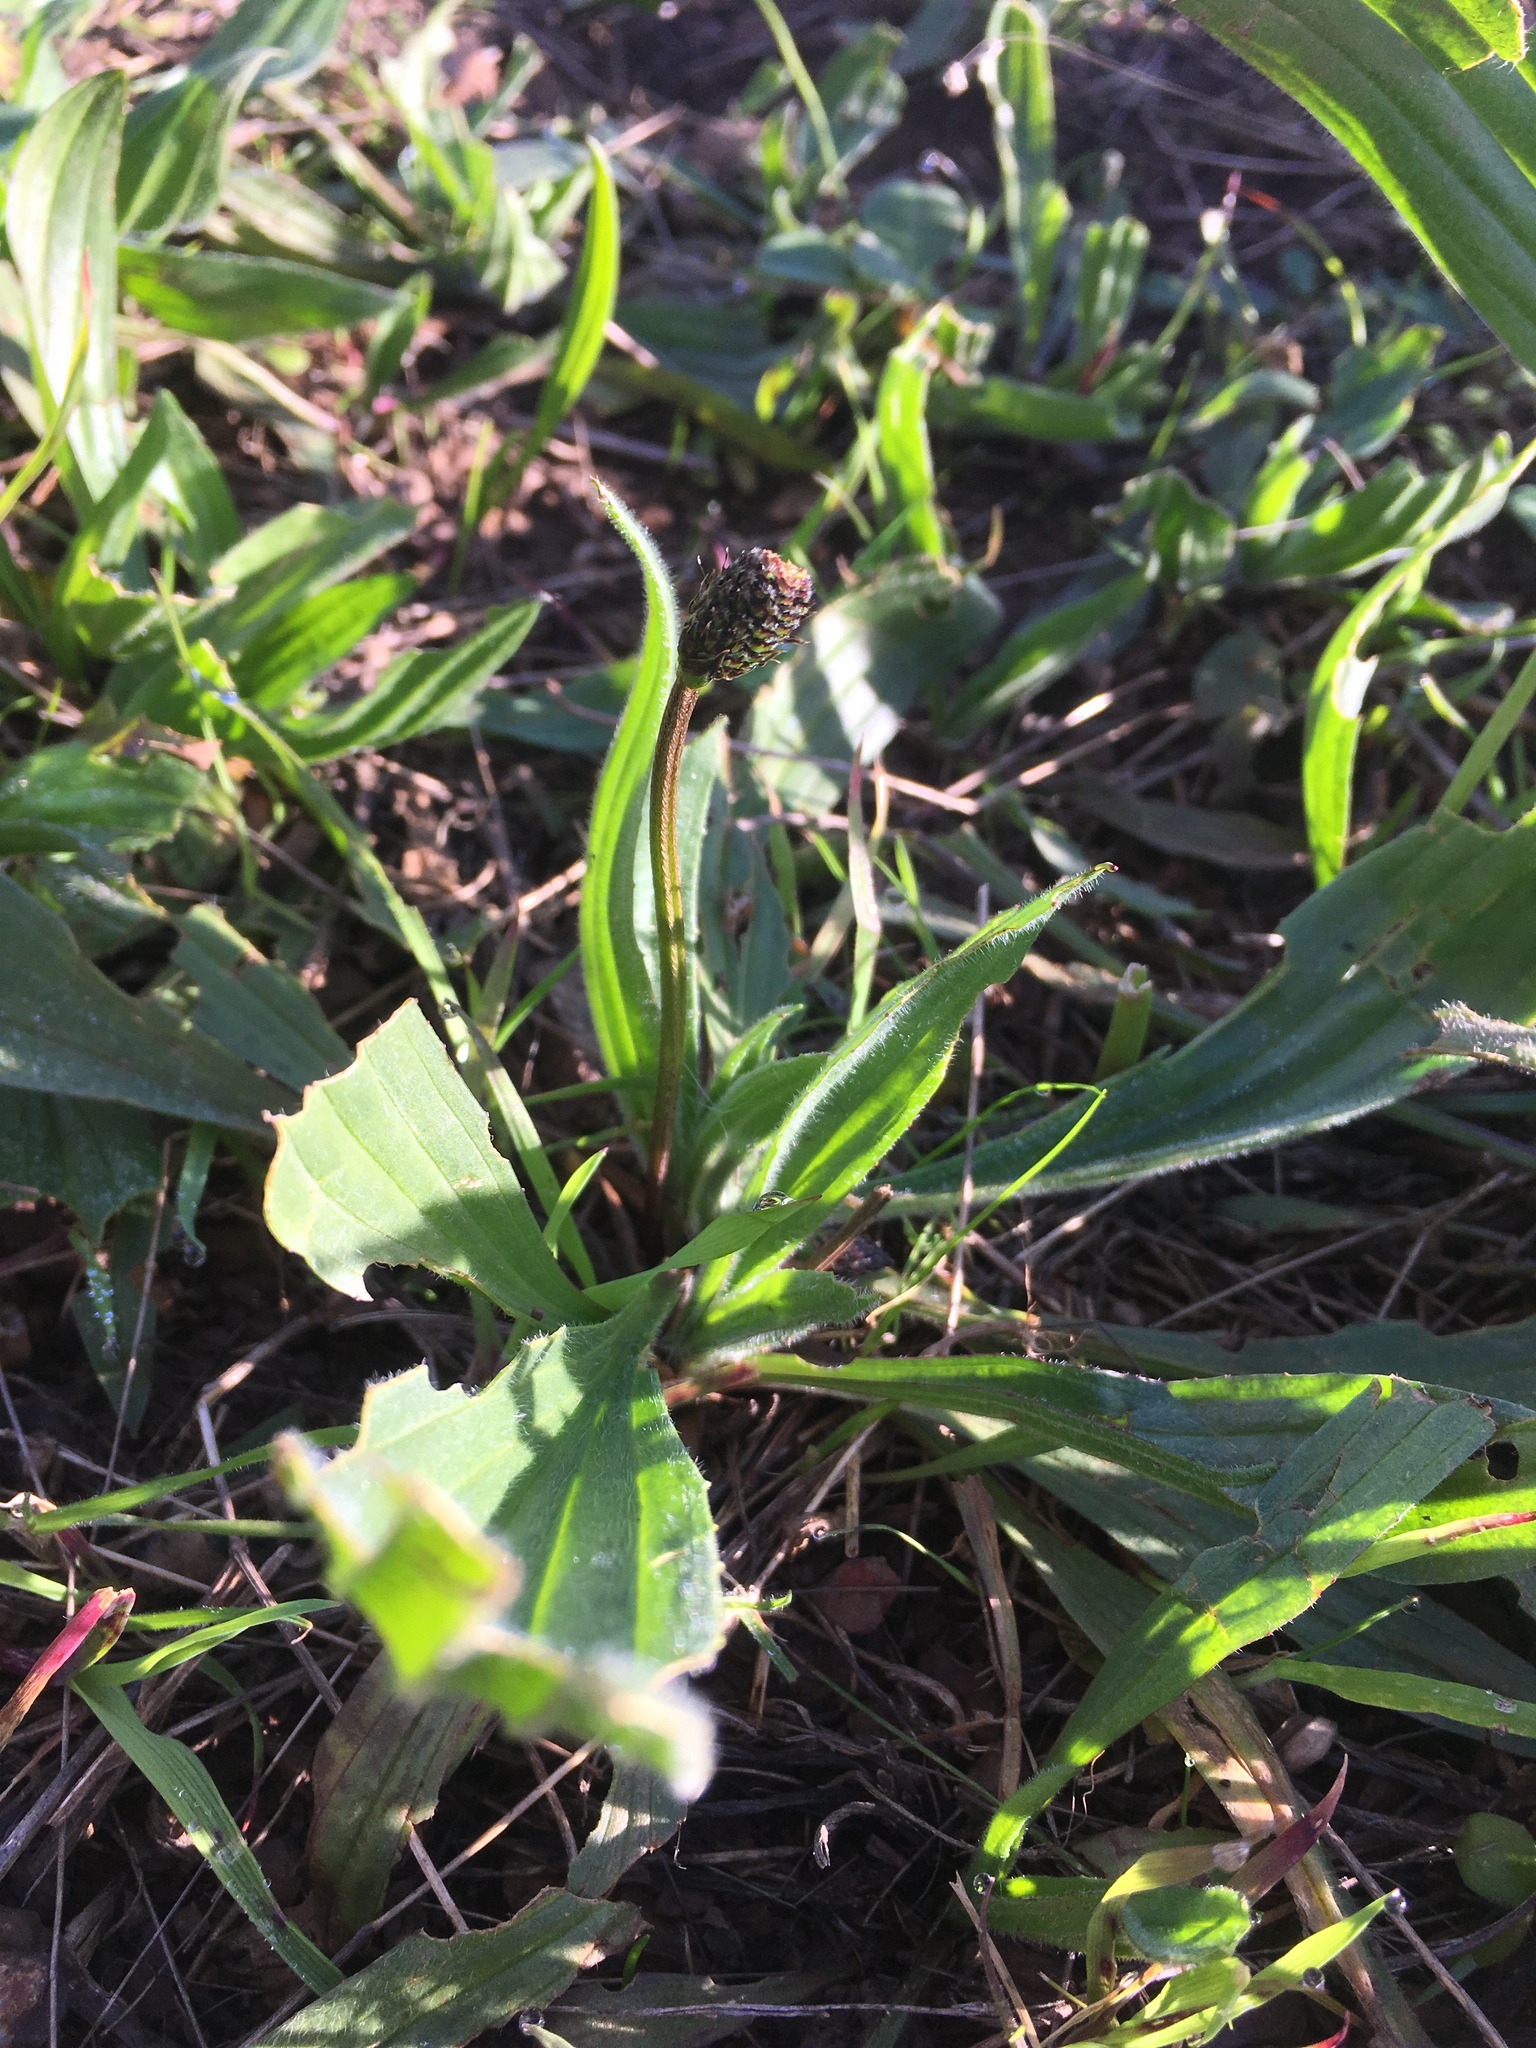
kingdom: Plantae
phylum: Tracheophyta
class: Magnoliopsida
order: Lamiales
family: Plantaginaceae
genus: Plantago
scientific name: Plantago lanceolata
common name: Ribwort plantain
